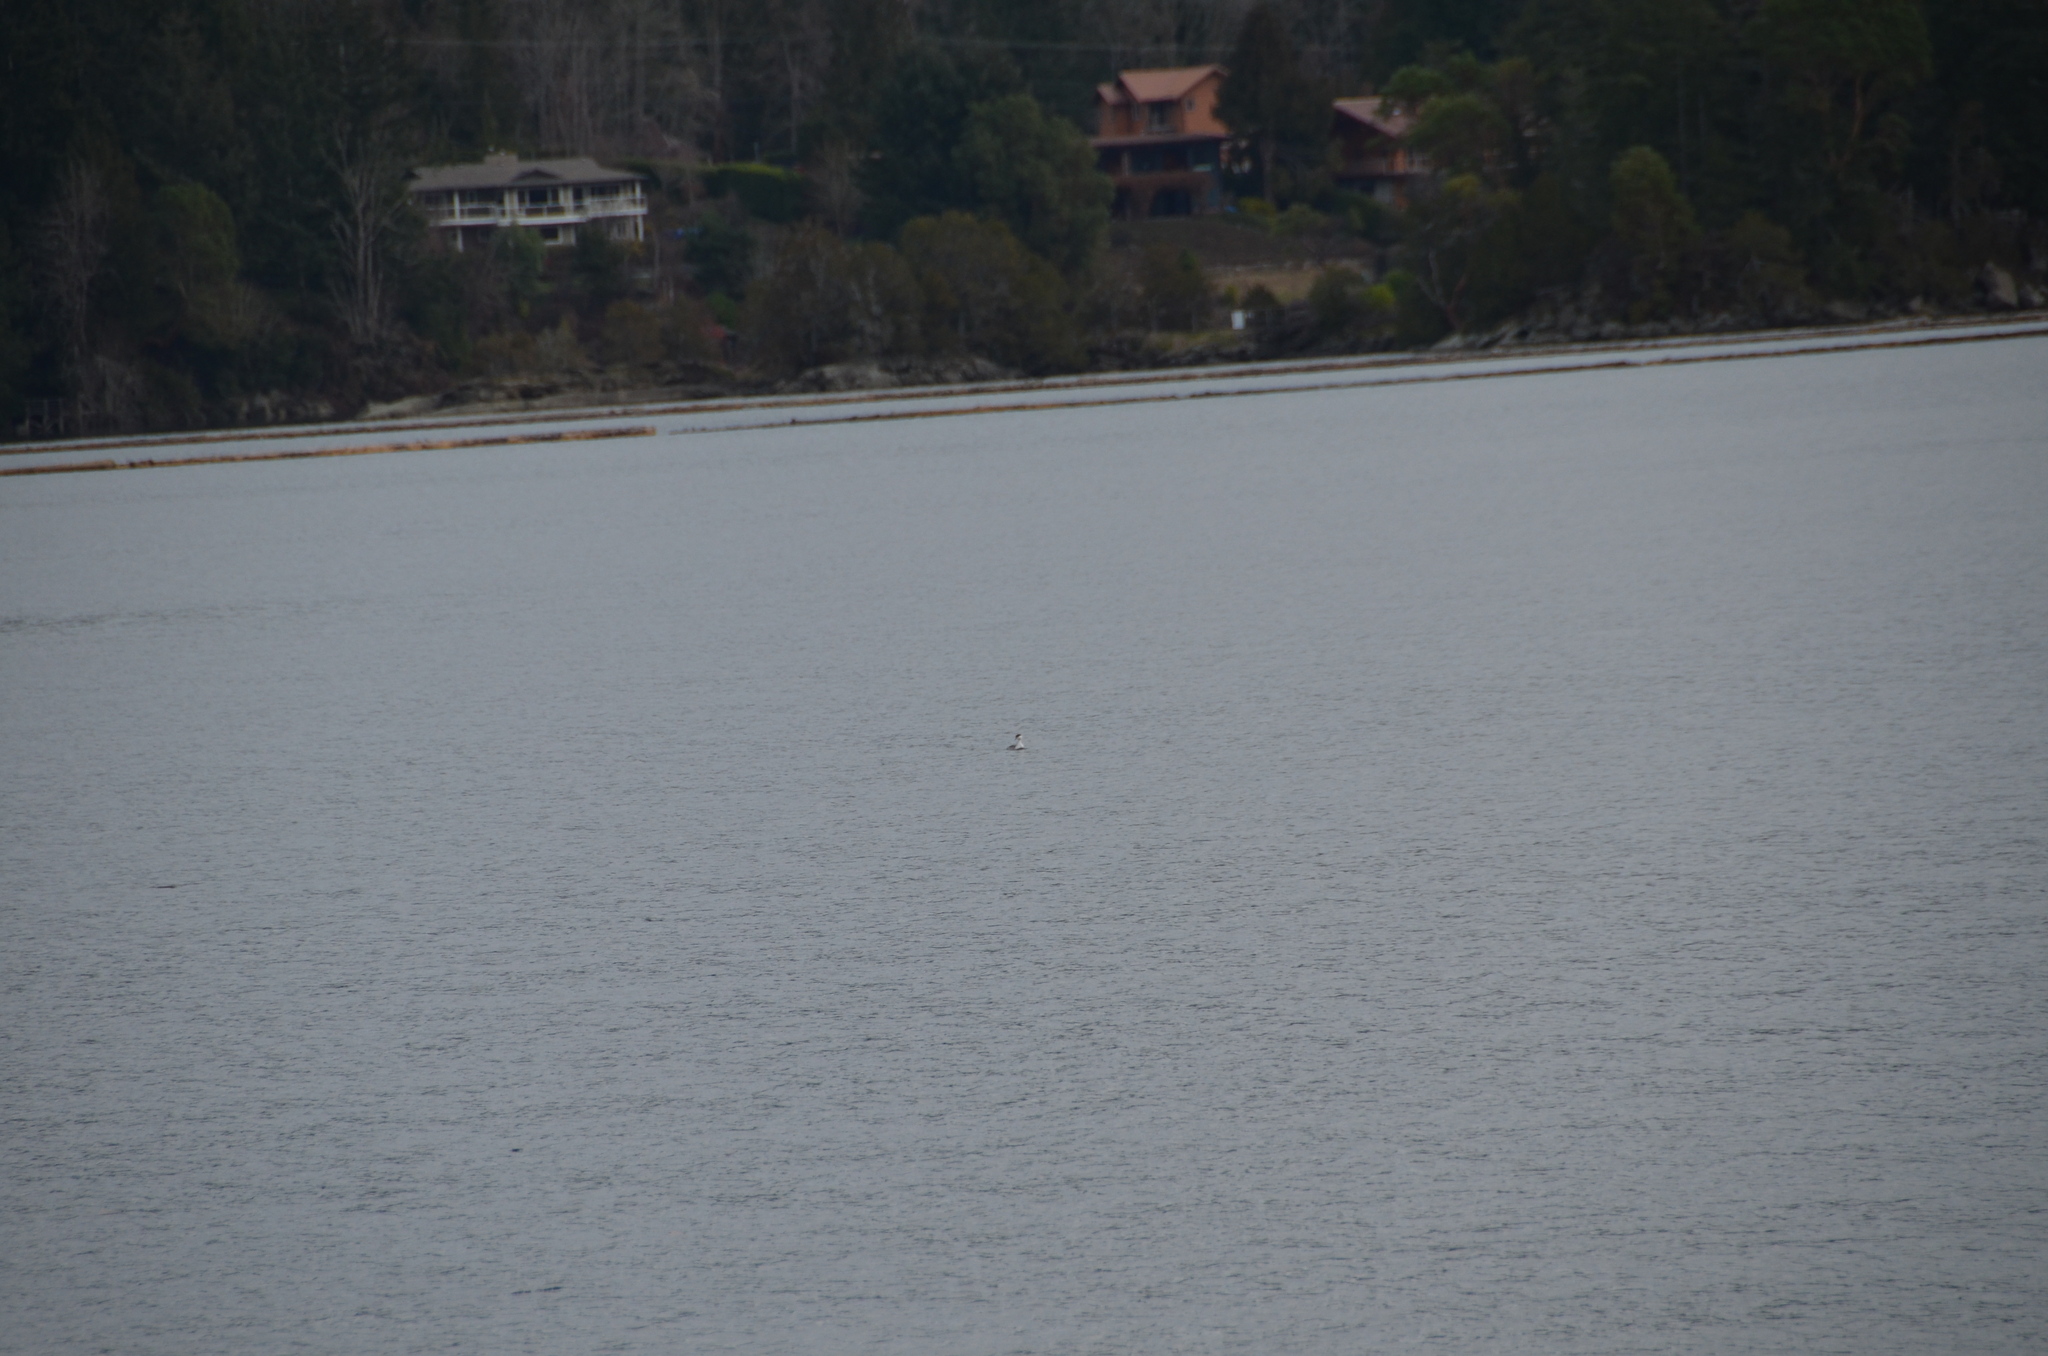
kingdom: Animalia
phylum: Chordata
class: Aves
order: Podicipediformes
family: Podicipedidae
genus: Podiceps
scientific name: Podiceps auritus
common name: Horned grebe
